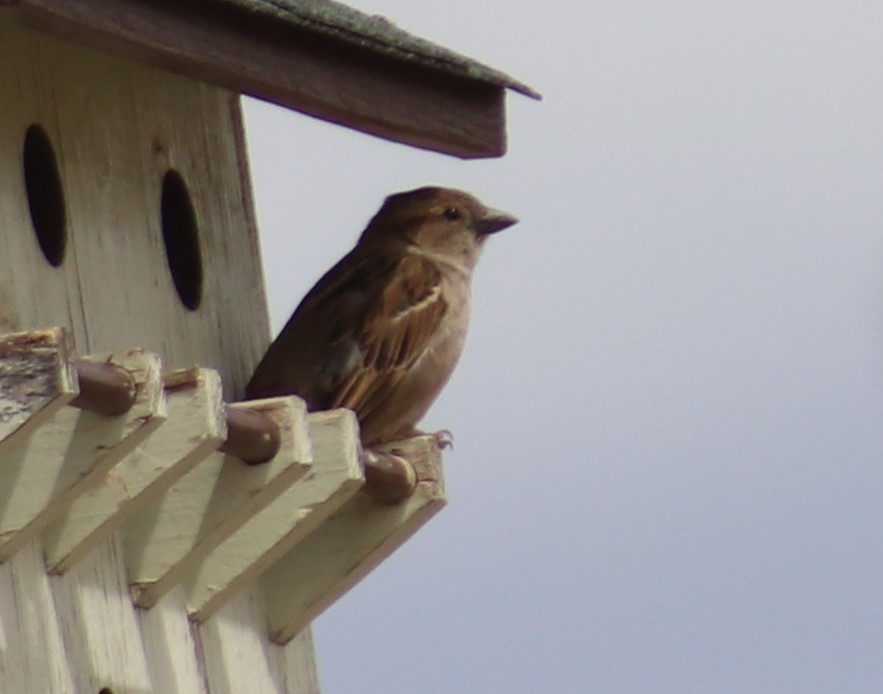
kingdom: Animalia
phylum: Chordata
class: Aves
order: Passeriformes
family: Passeridae
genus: Passer
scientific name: Passer domesticus
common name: House sparrow
